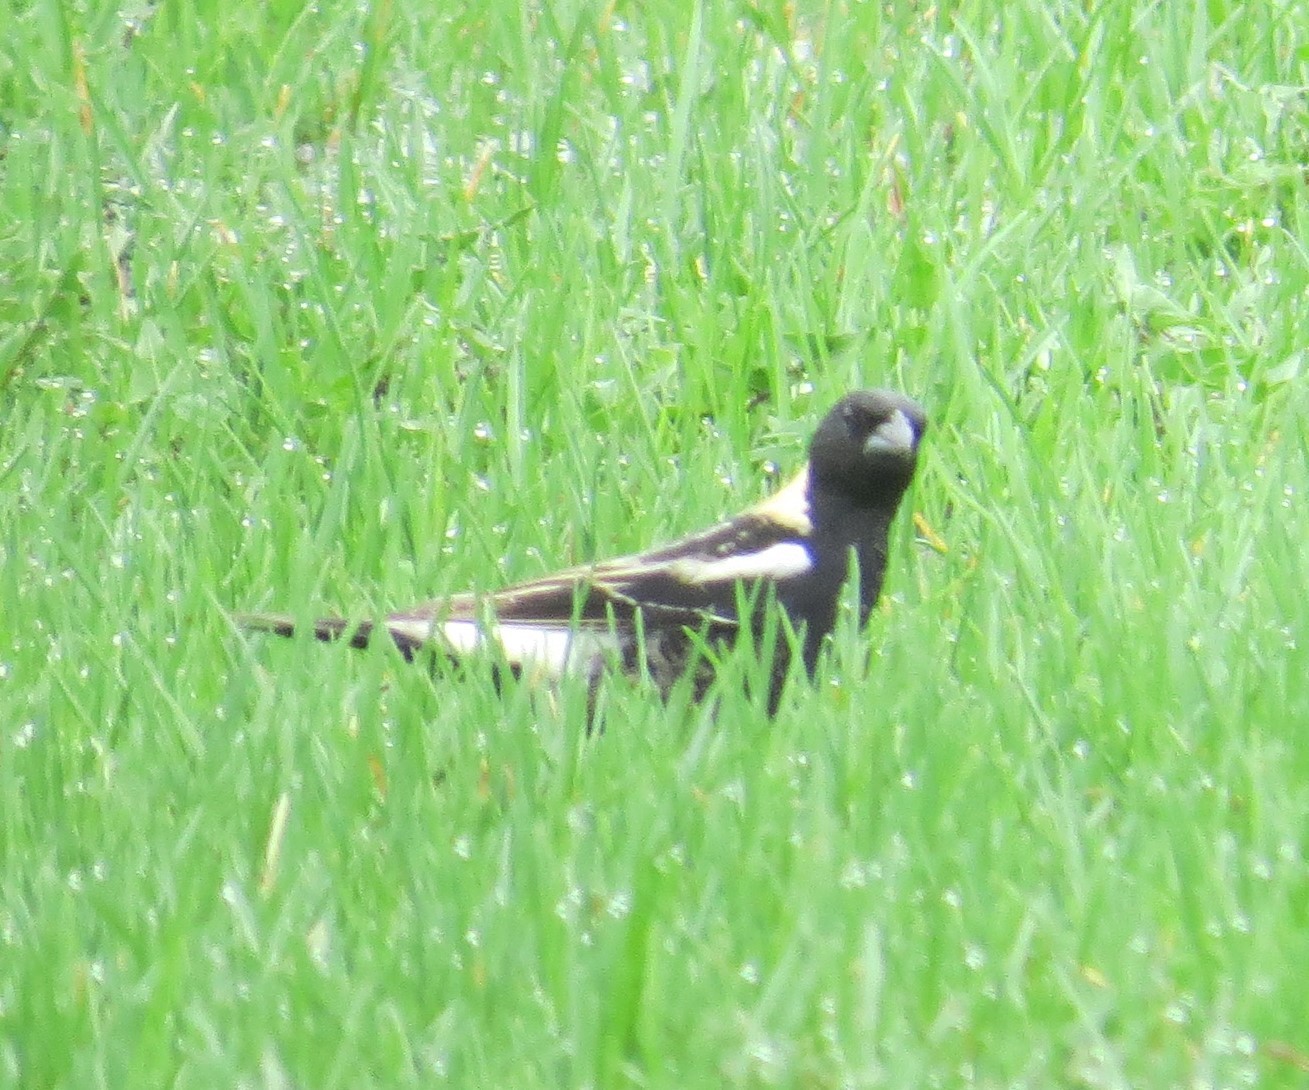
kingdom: Animalia
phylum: Chordata
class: Aves
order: Passeriformes
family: Icteridae
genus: Dolichonyx
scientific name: Dolichonyx oryzivorus
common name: Bobolink
